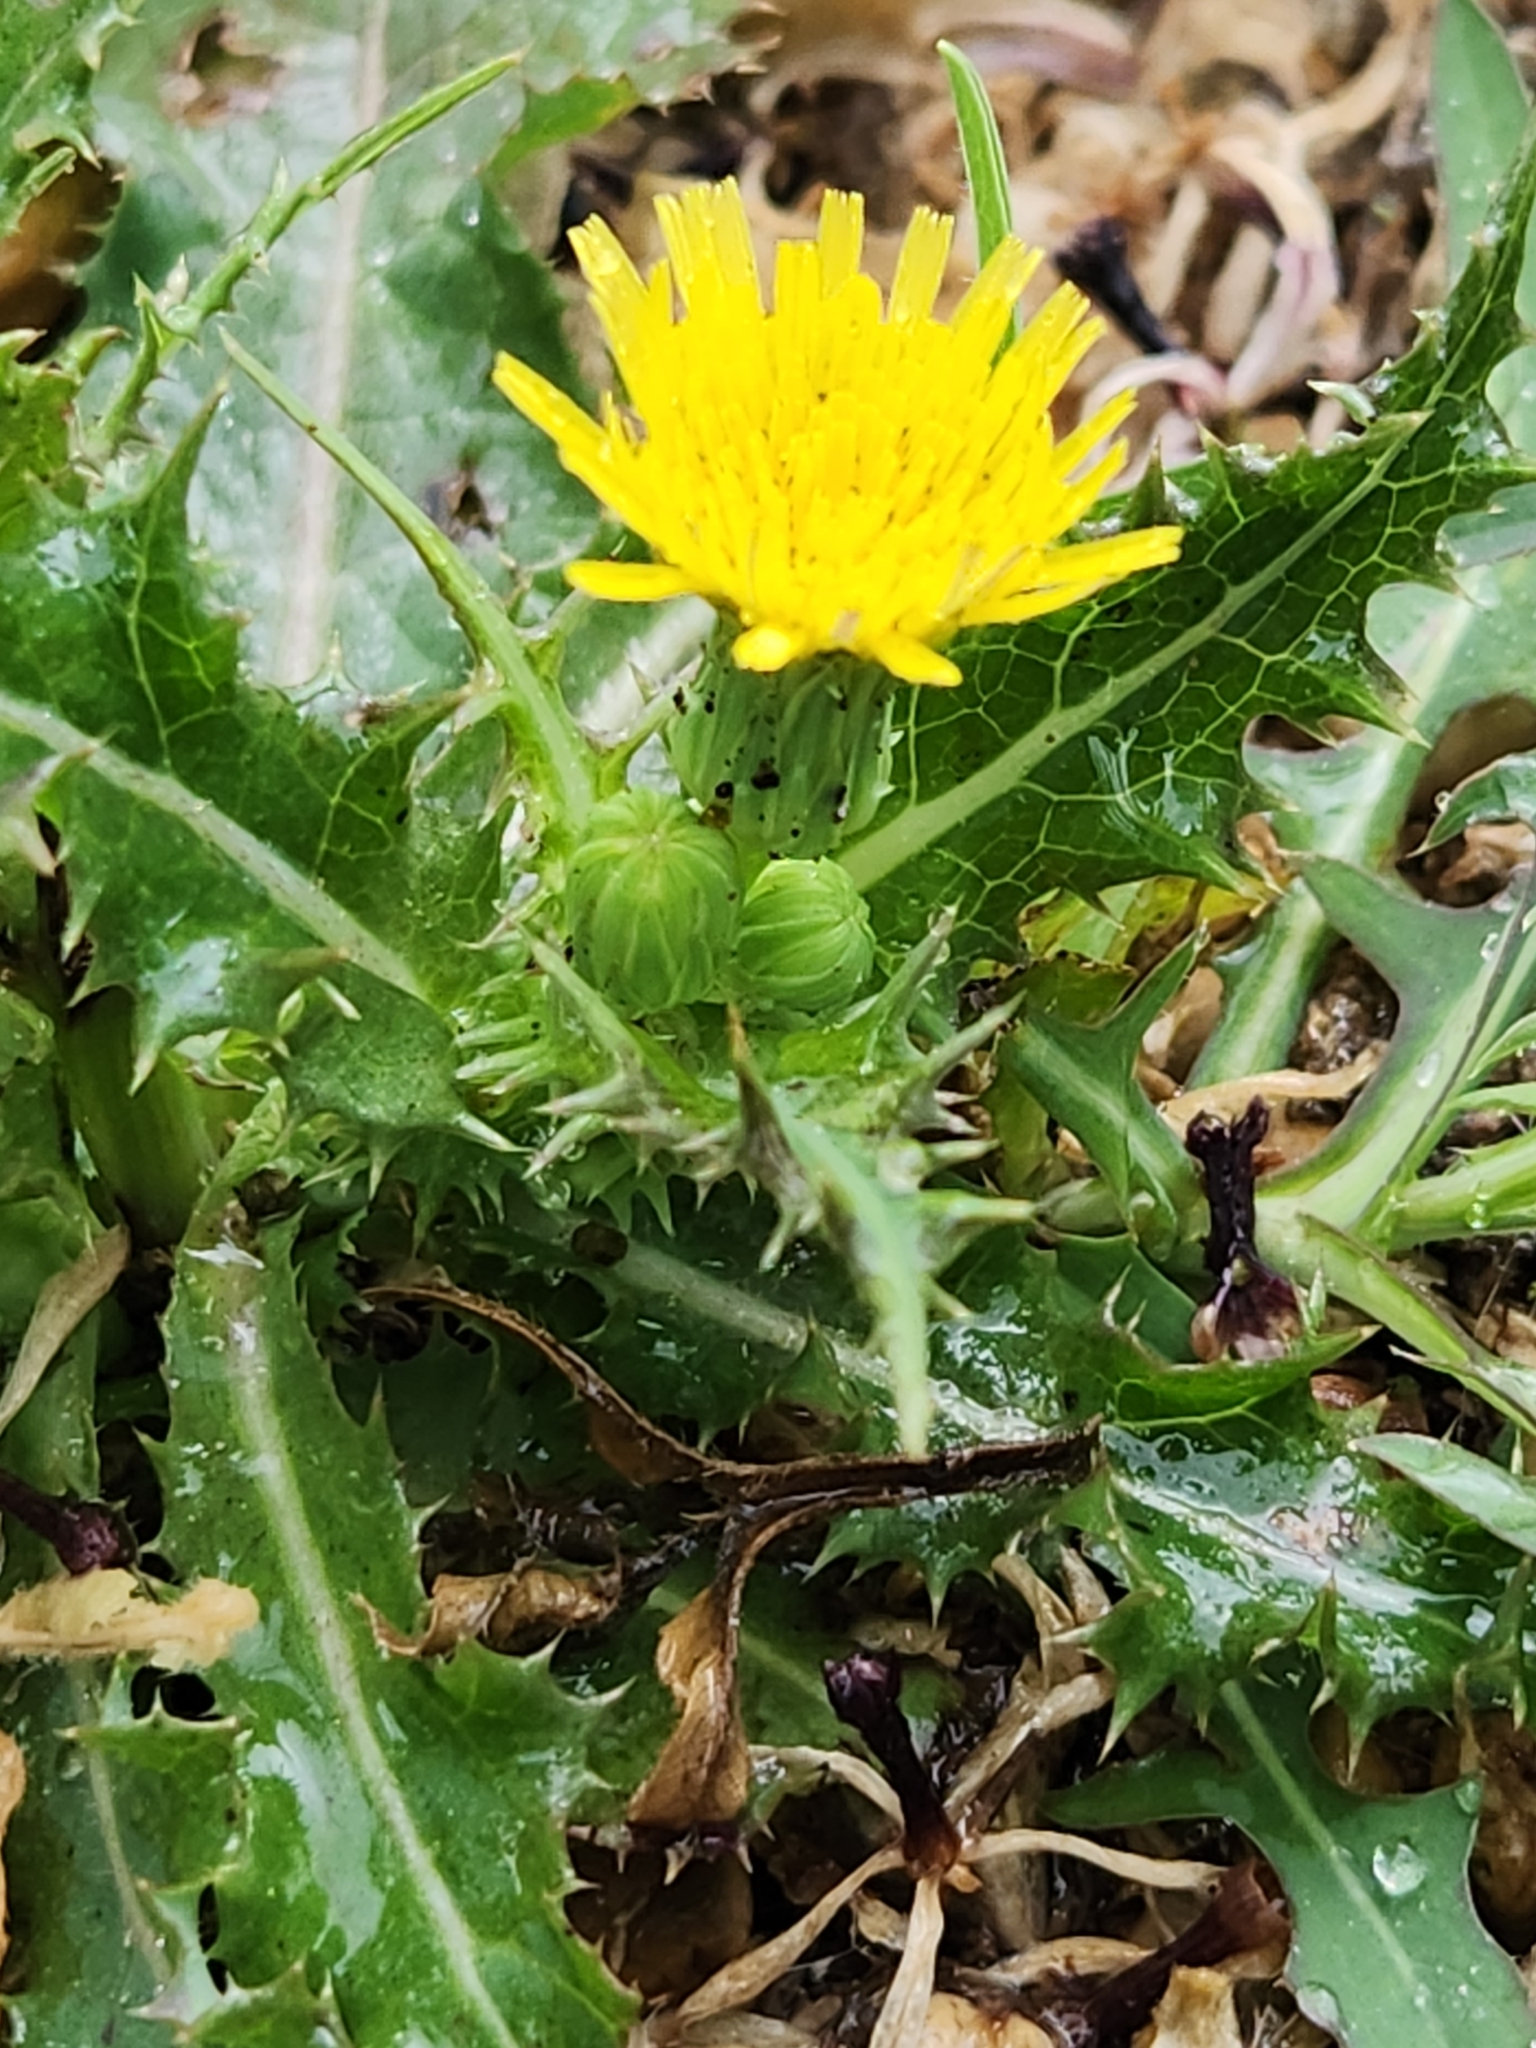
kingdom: Plantae
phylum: Tracheophyta
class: Magnoliopsida
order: Asterales
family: Asteraceae
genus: Sonchus
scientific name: Sonchus asper
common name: Prickly sow-thistle
